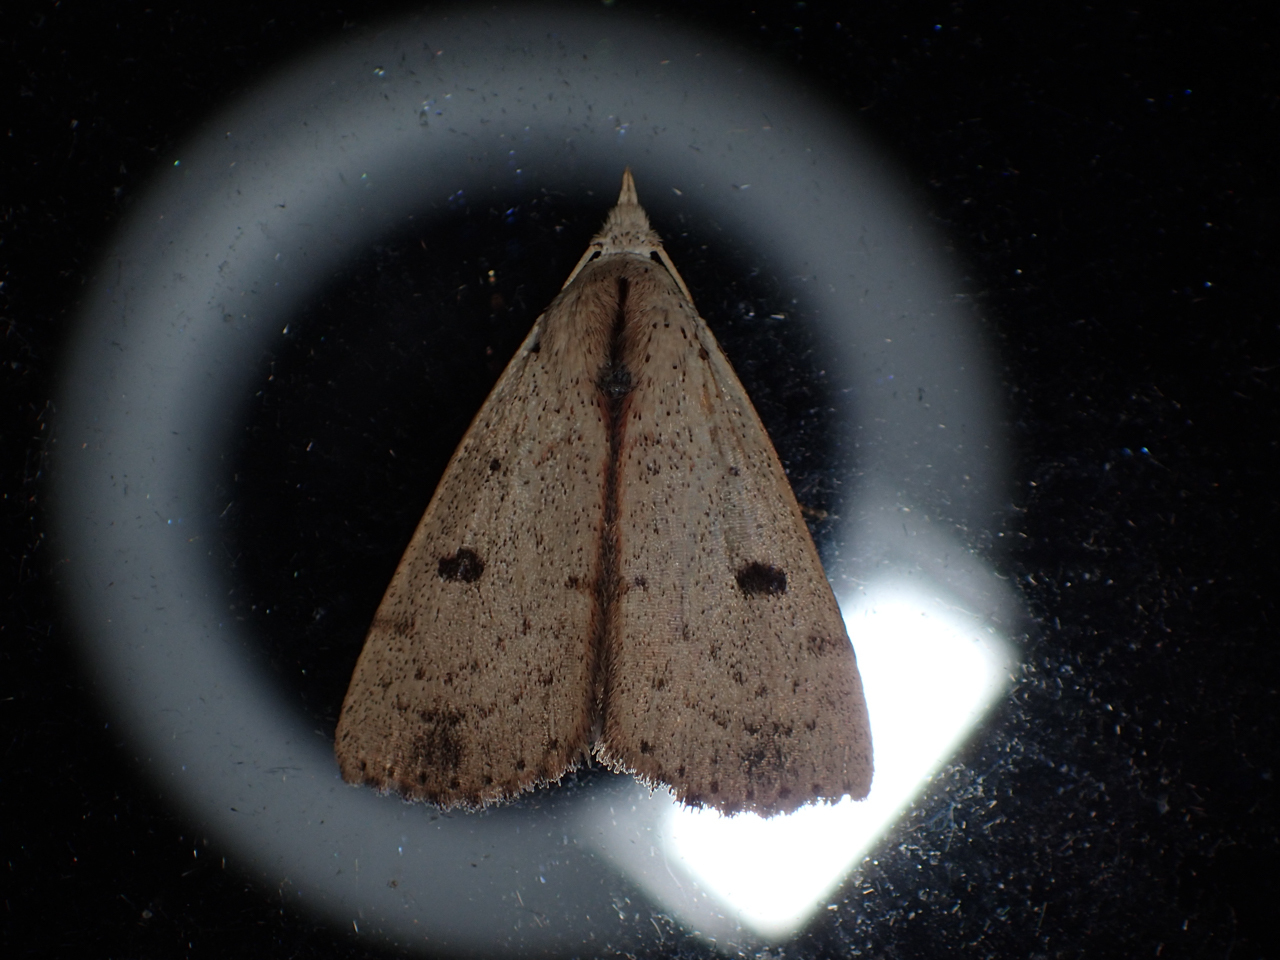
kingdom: Animalia
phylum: Arthropoda
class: Insecta
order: Lepidoptera
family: Erebidae
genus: Scolecocampa
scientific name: Scolecocampa liburna
